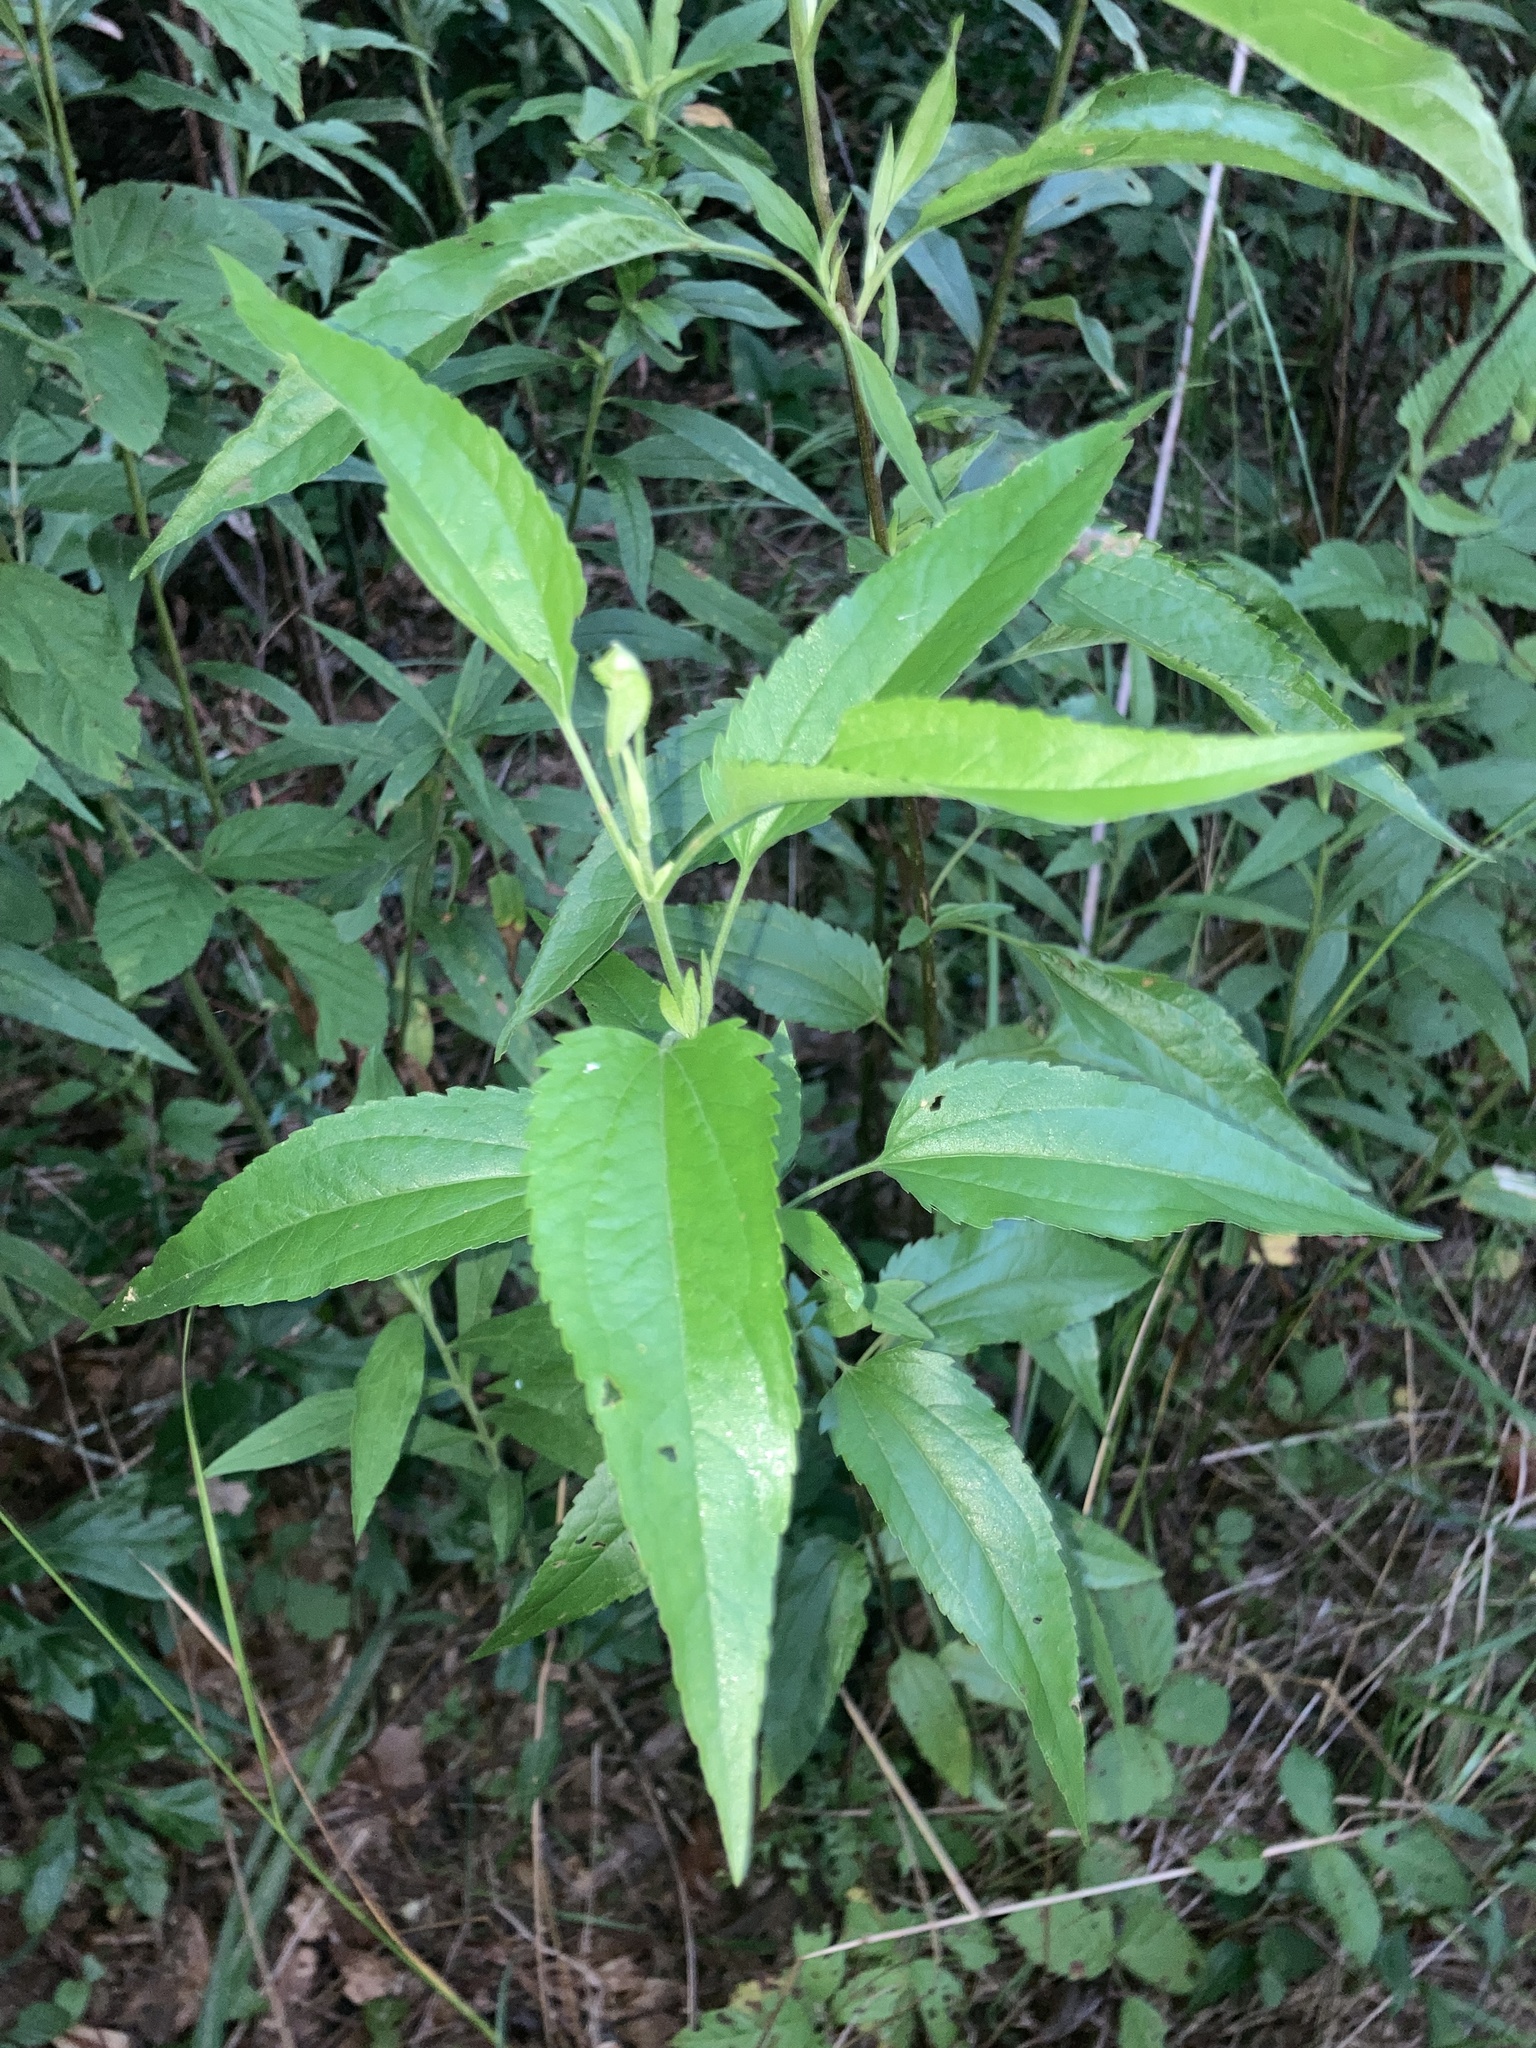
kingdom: Plantae
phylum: Tracheophyta
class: Magnoliopsida
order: Asterales
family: Asteraceae
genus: Eupatorium
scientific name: Eupatorium serotinum
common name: Late boneset
